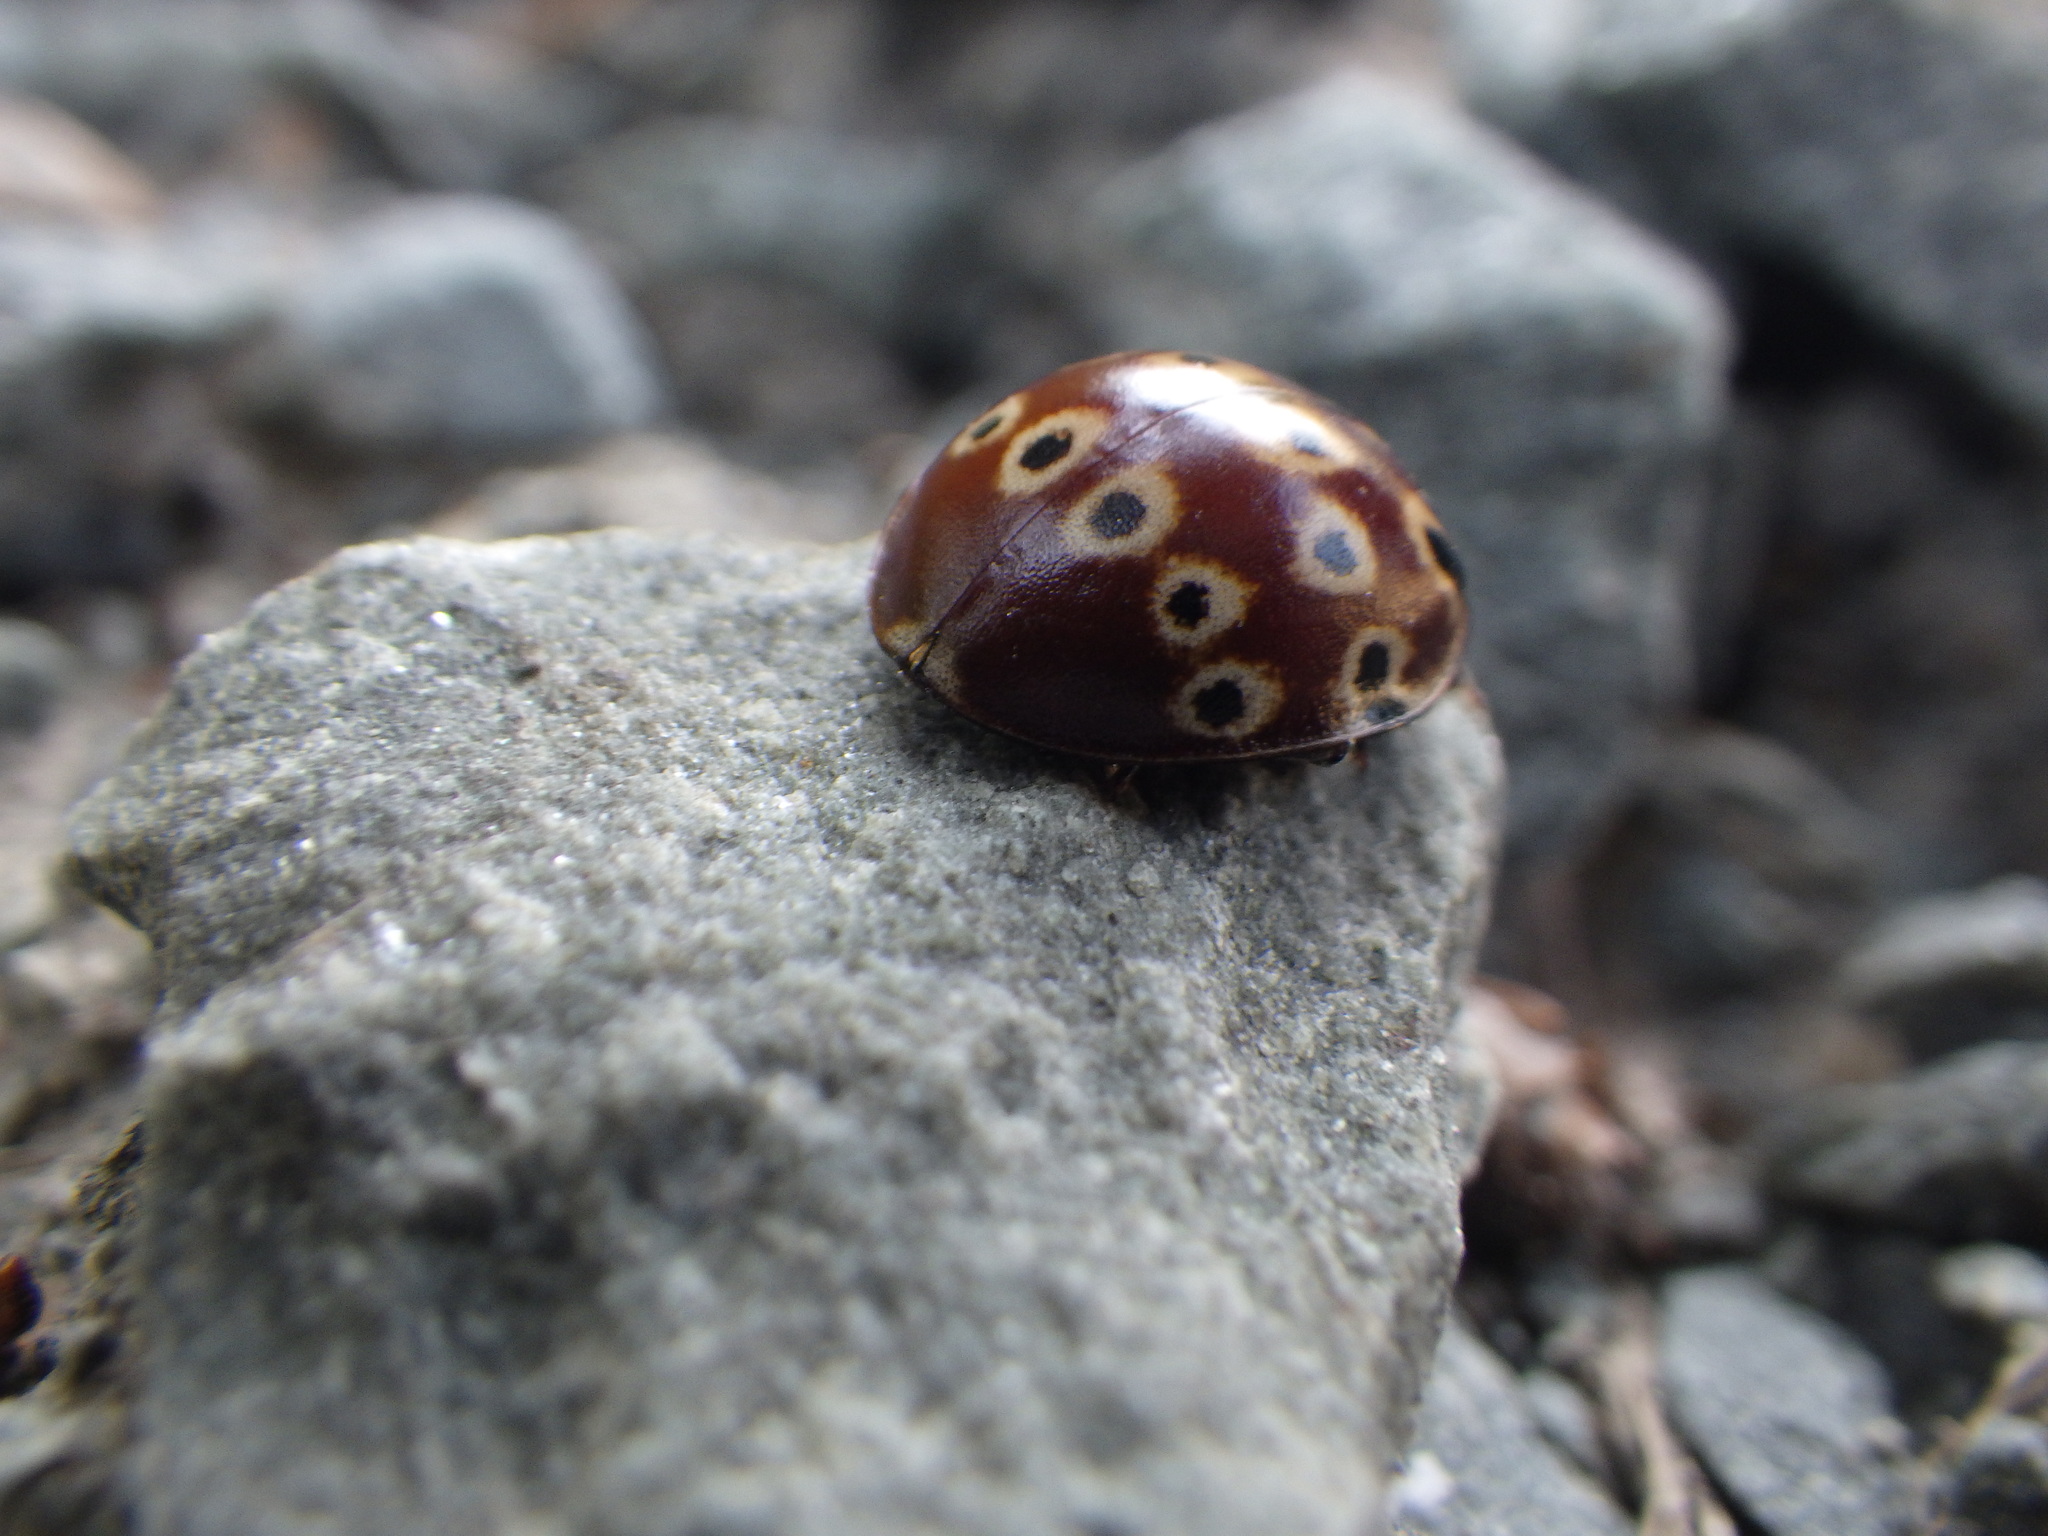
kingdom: Animalia
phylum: Arthropoda
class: Insecta
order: Coleoptera
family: Coccinellidae
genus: Anatis
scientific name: Anatis mali
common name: Eye-spotted lady beetle
